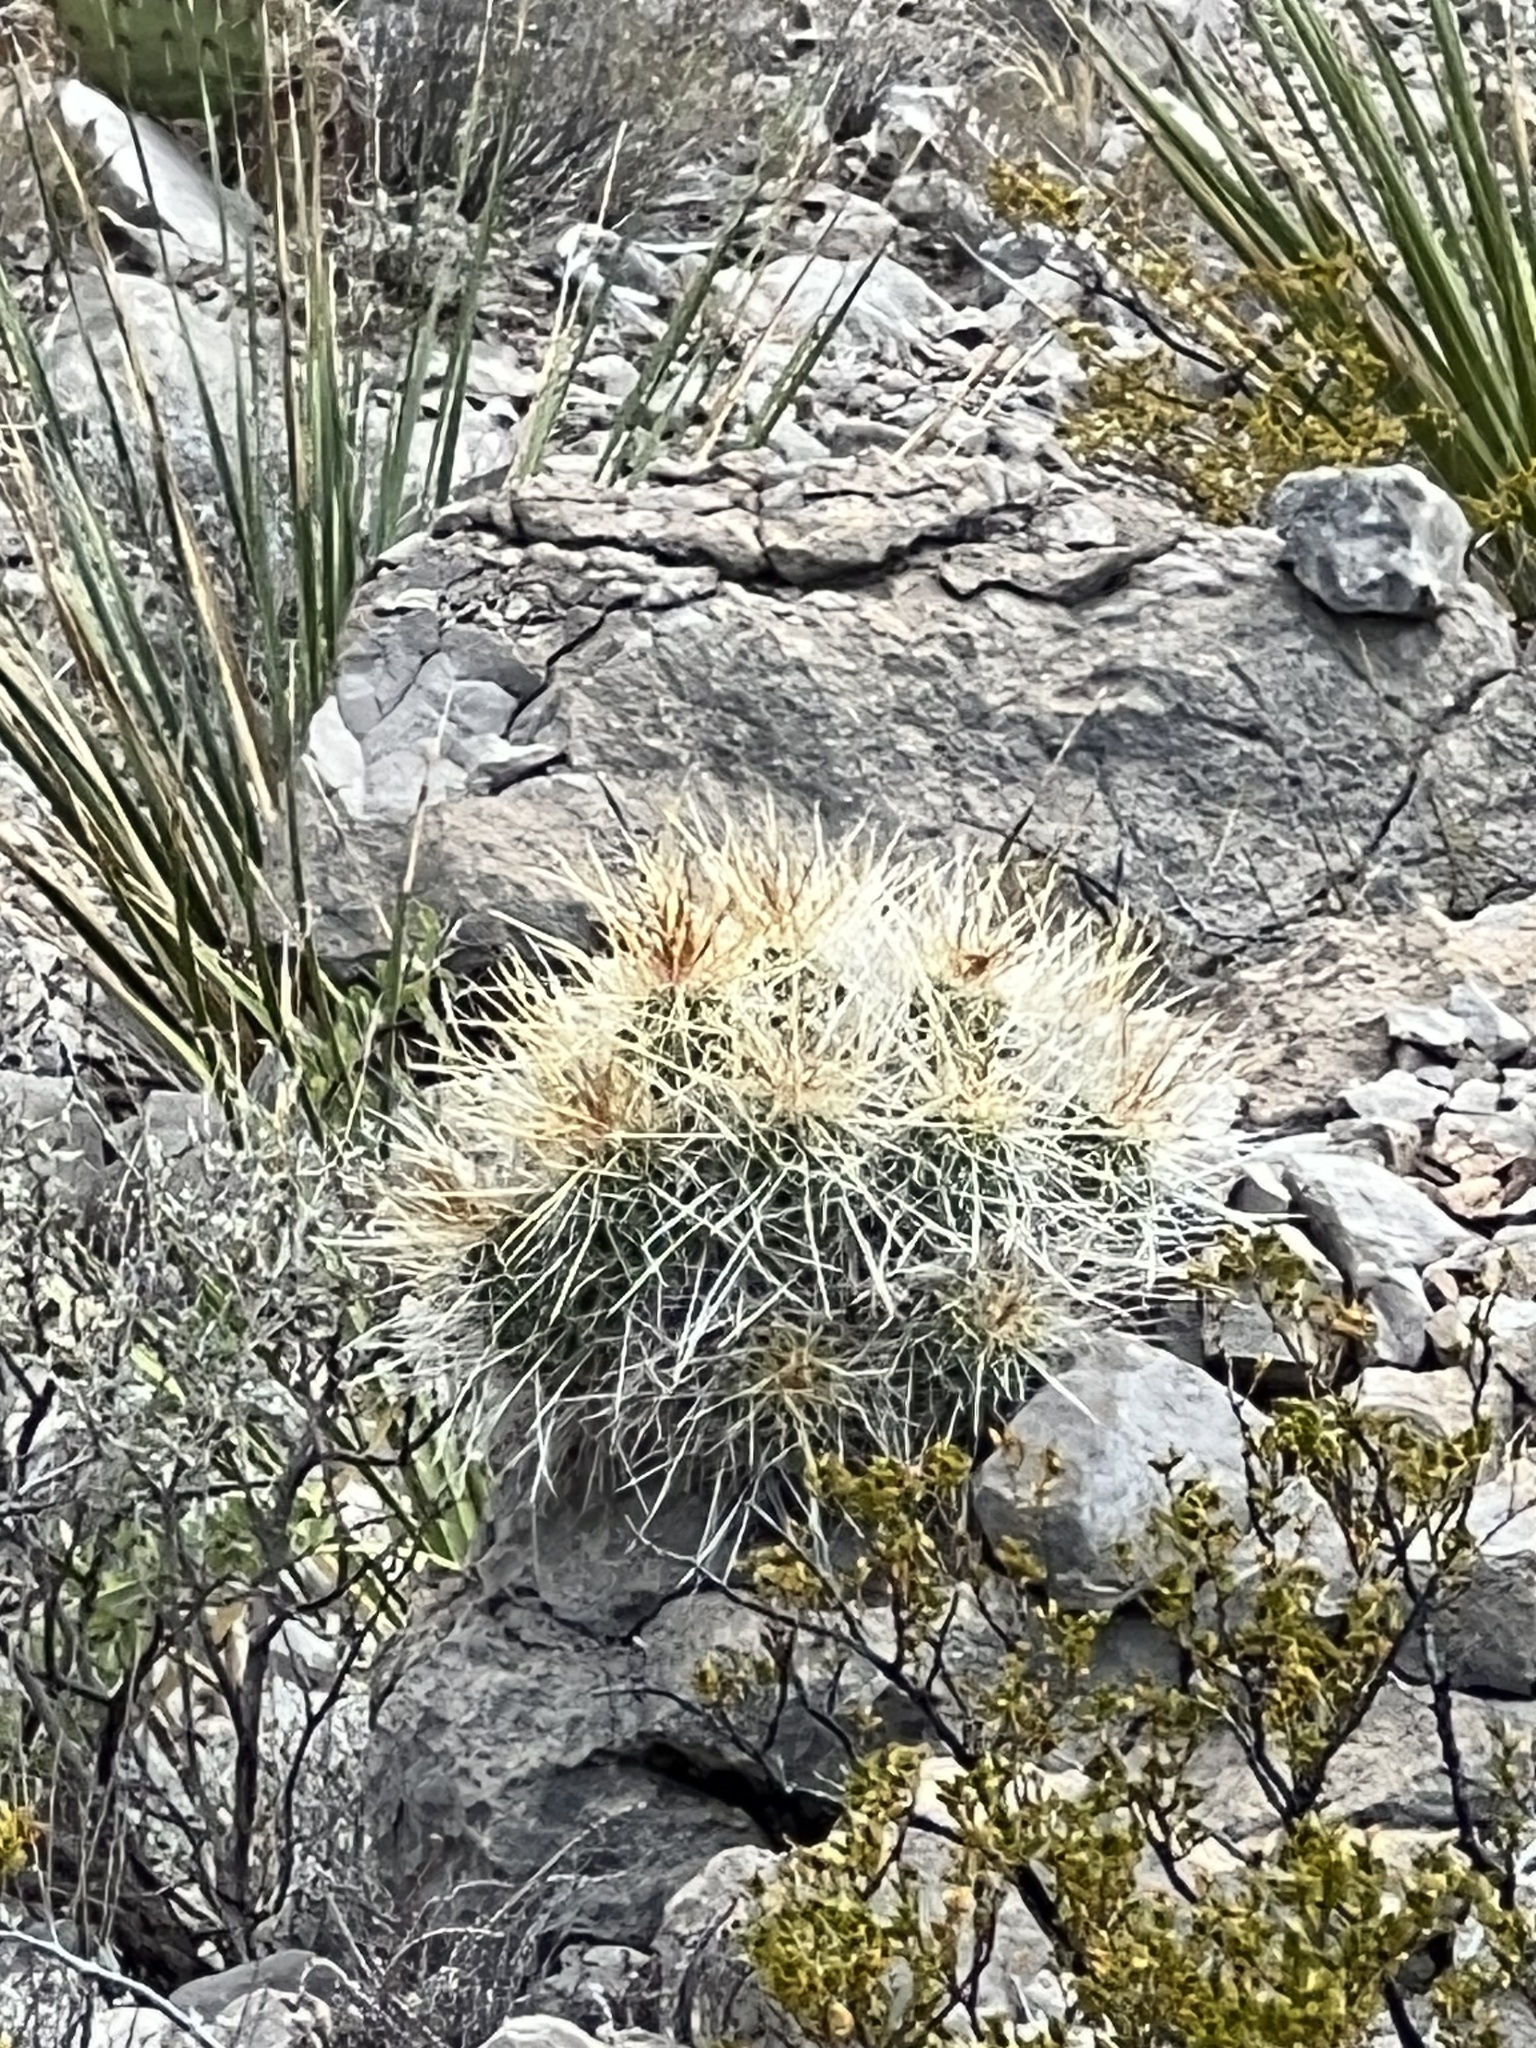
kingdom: Plantae
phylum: Tracheophyta
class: Magnoliopsida
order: Caryophyllales
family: Cactaceae
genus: Echinocereus
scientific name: Echinocereus stramineus
